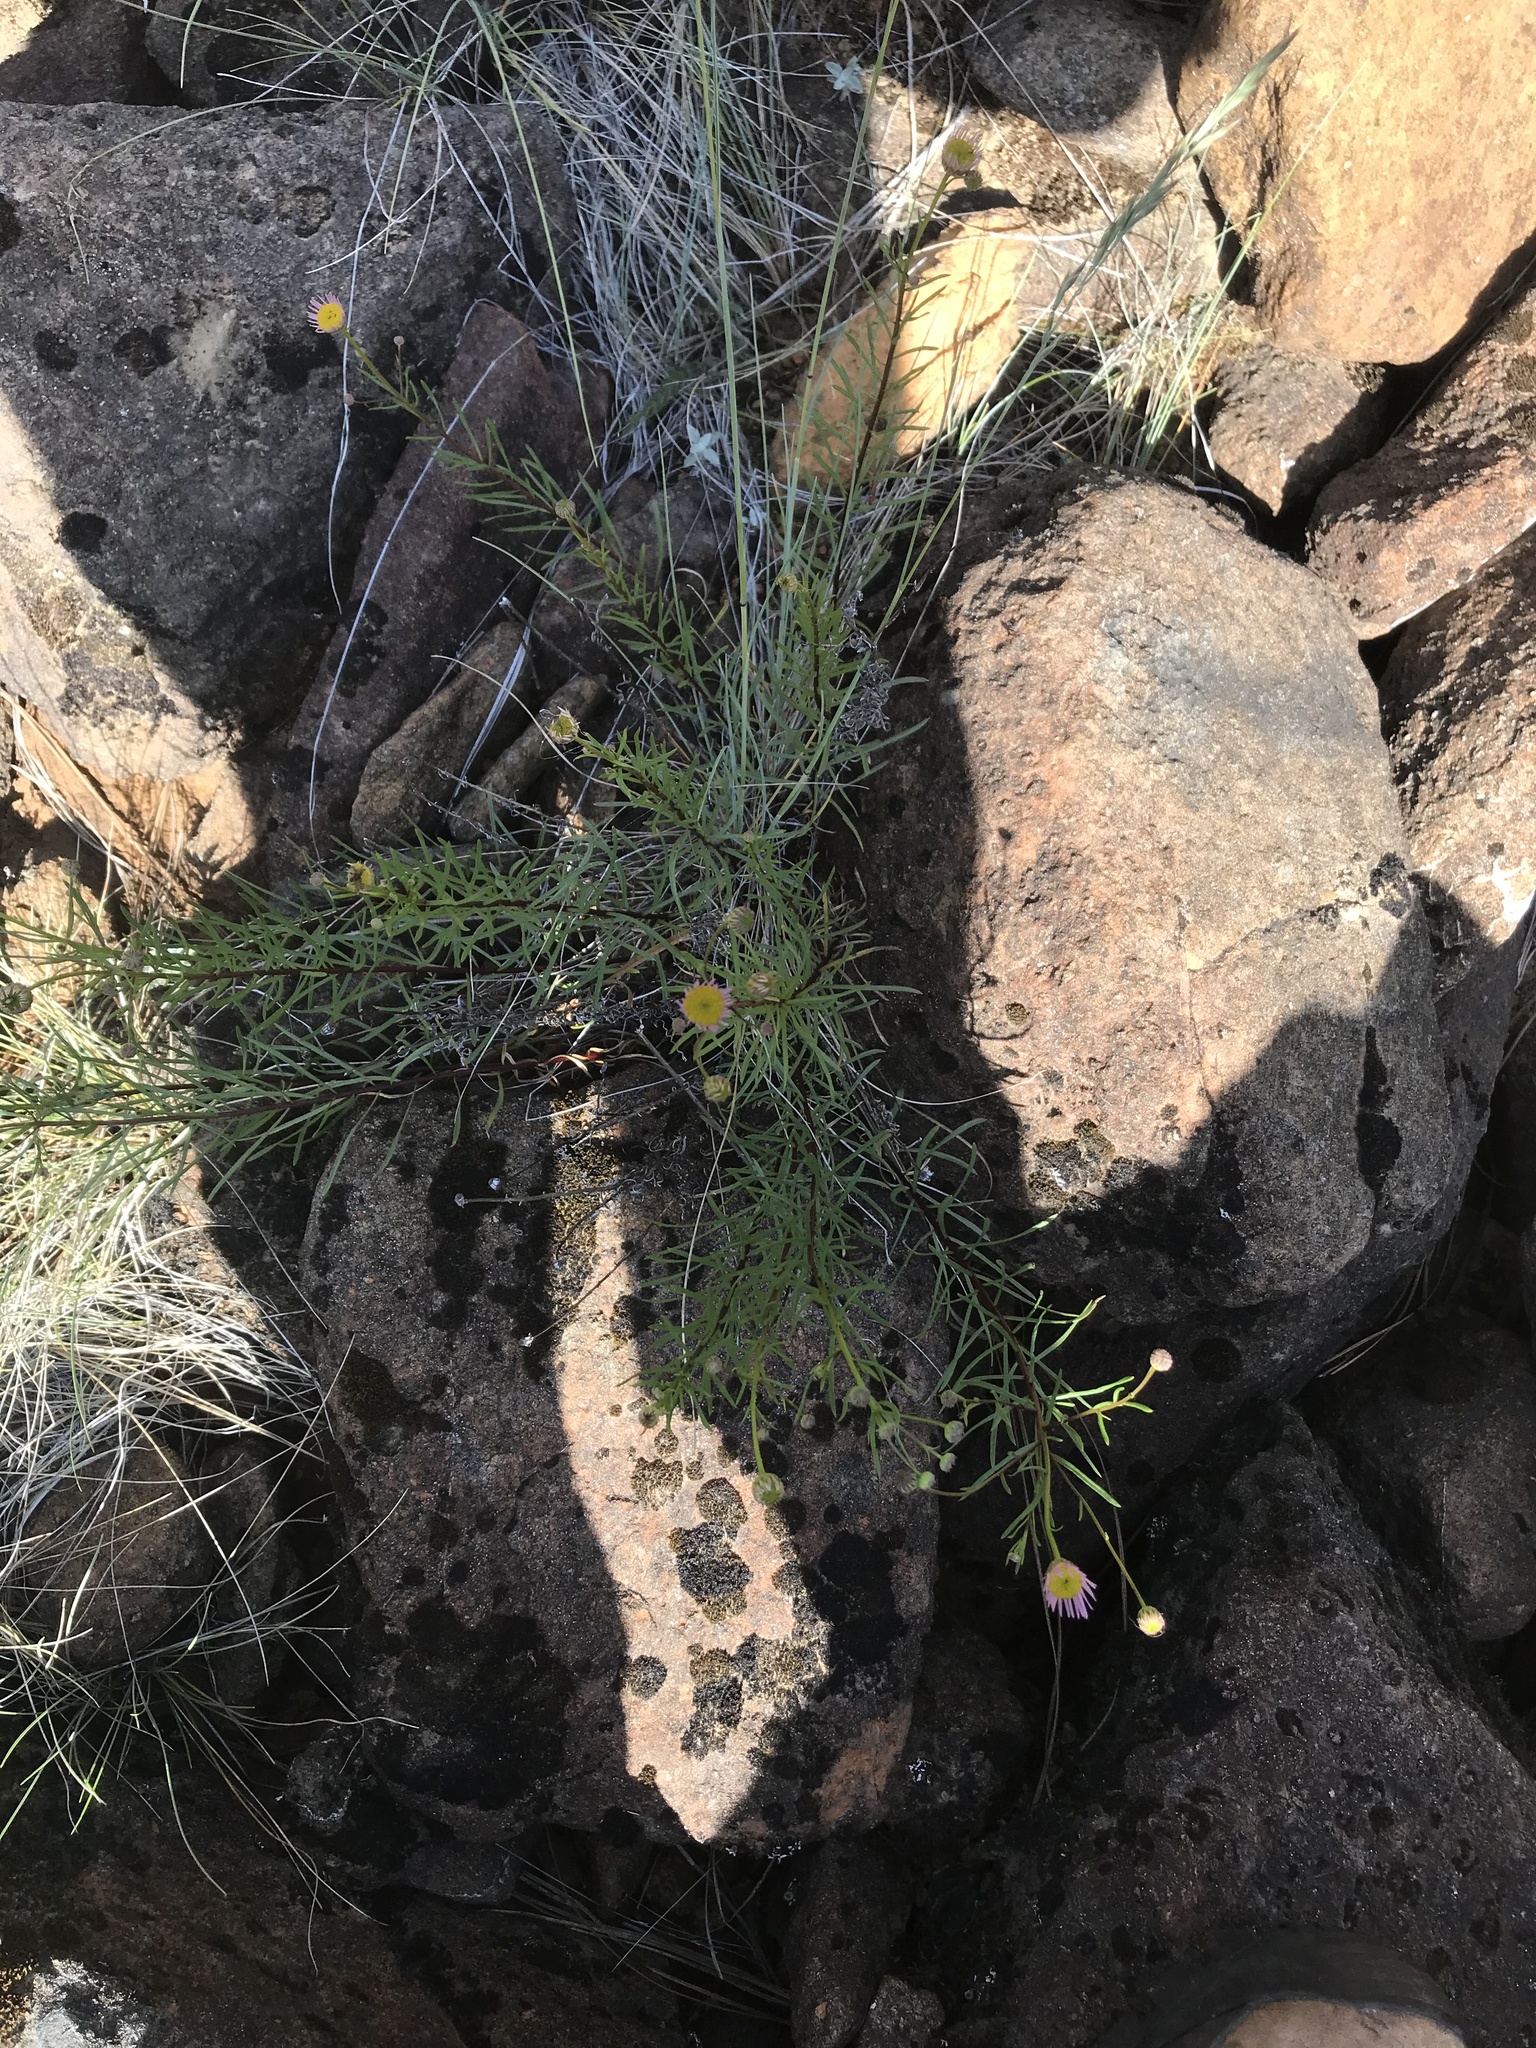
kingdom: Plantae
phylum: Tracheophyta
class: Magnoliopsida
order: Asterales
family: Asteraceae
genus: Erigeron
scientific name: Erigeron foliosus
